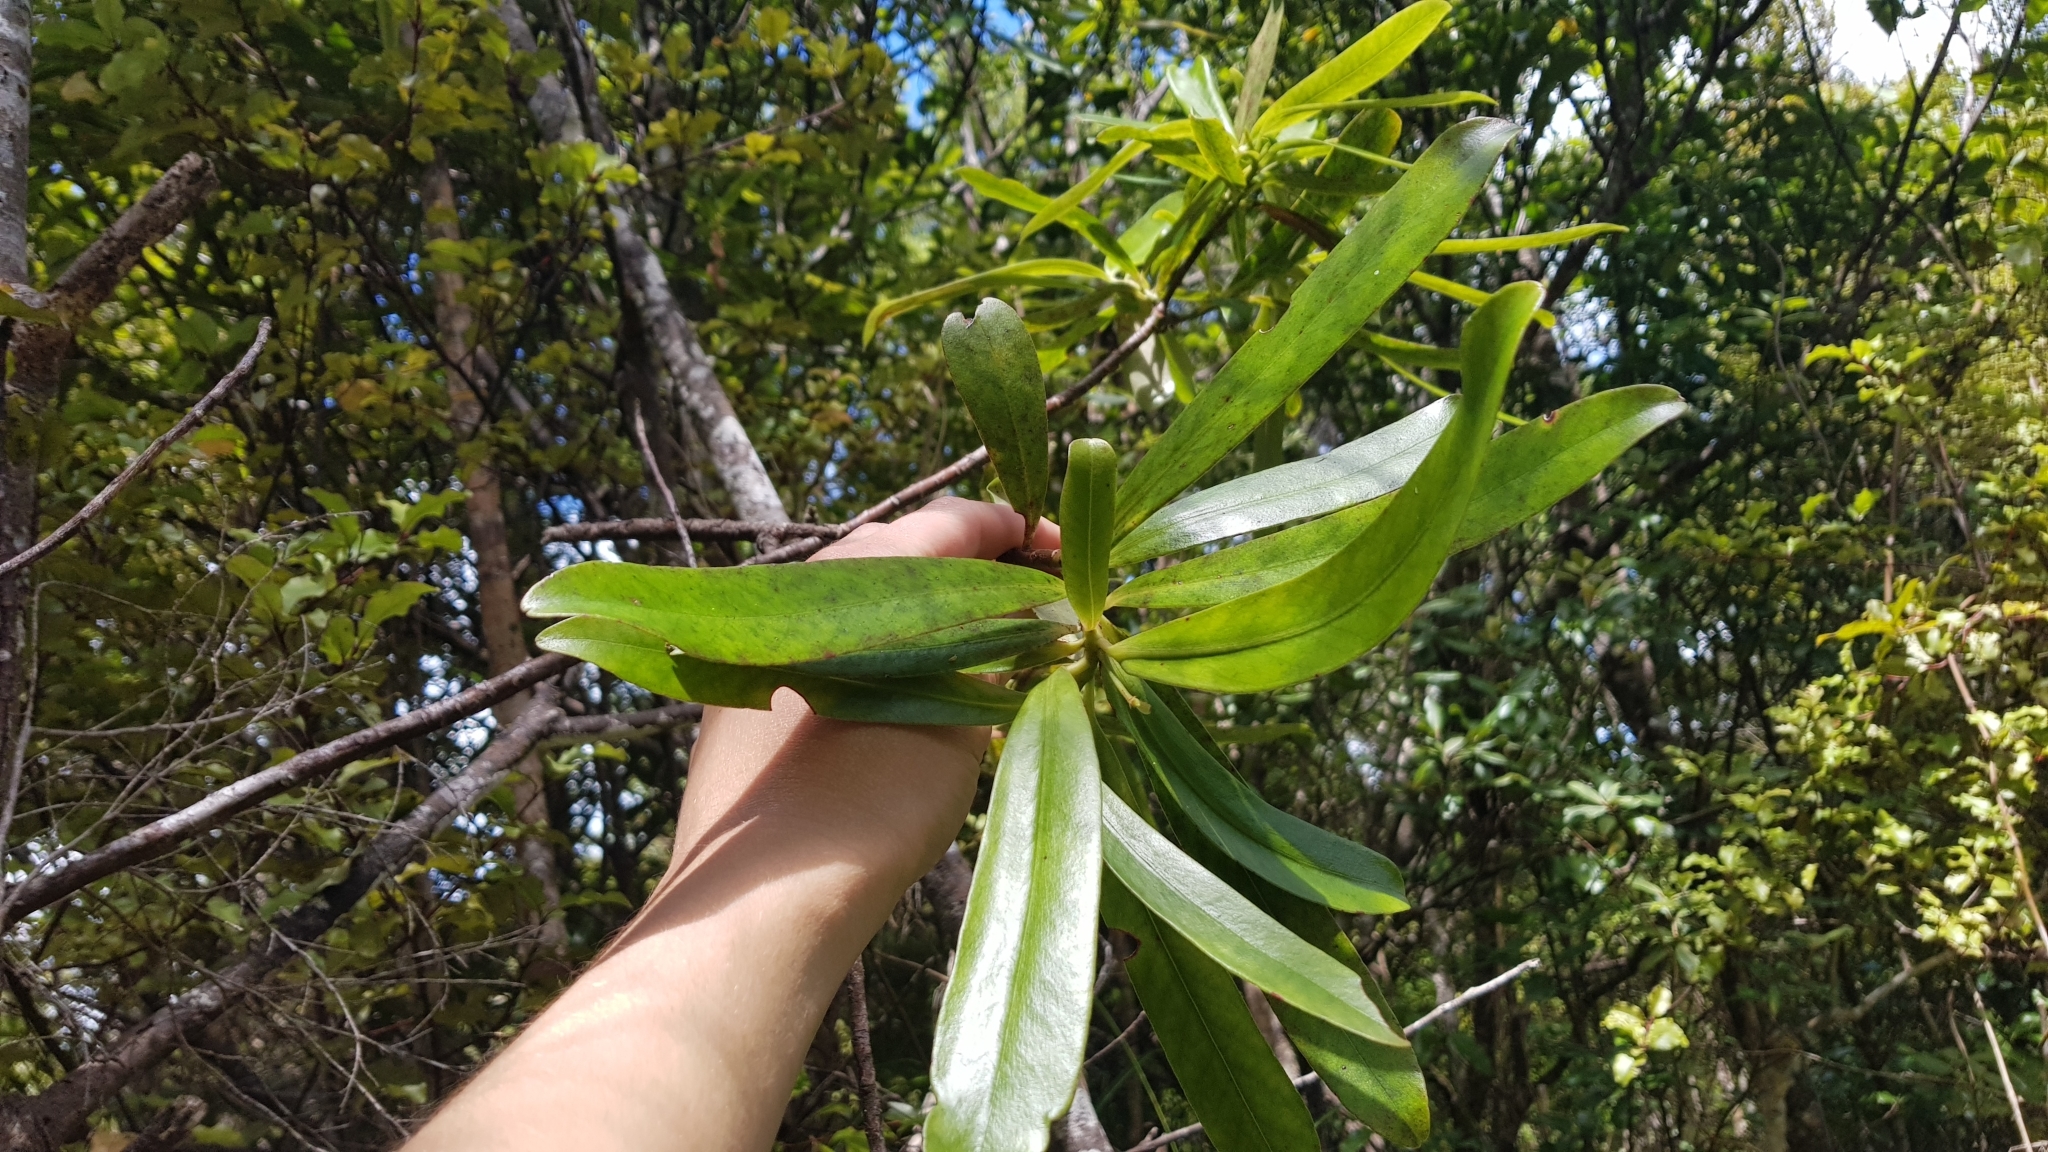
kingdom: Plantae
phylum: Tracheophyta
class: Magnoliopsida
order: Proteales
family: Proteaceae
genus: Toronia
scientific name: Toronia toru
